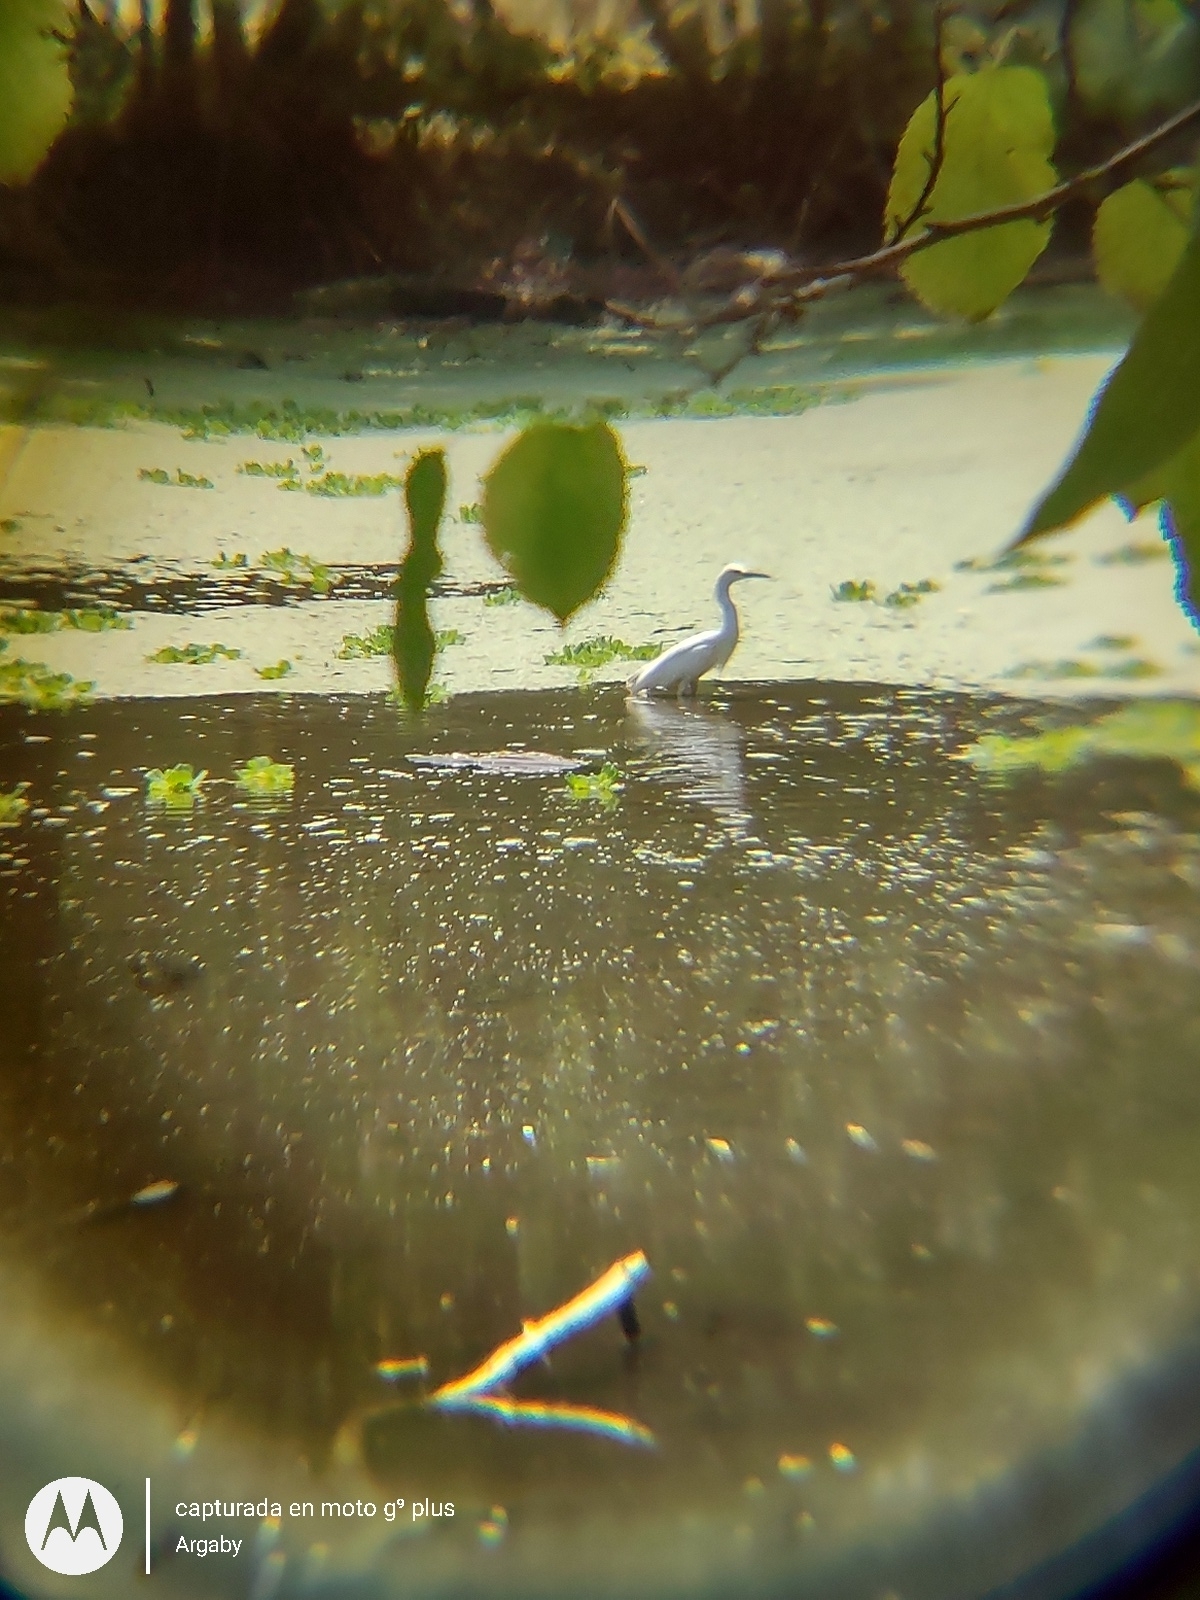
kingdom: Animalia
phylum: Chordata
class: Aves
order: Pelecaniformes
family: Ardeidae
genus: Egretta
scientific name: Egretta thula
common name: Snowy egret
